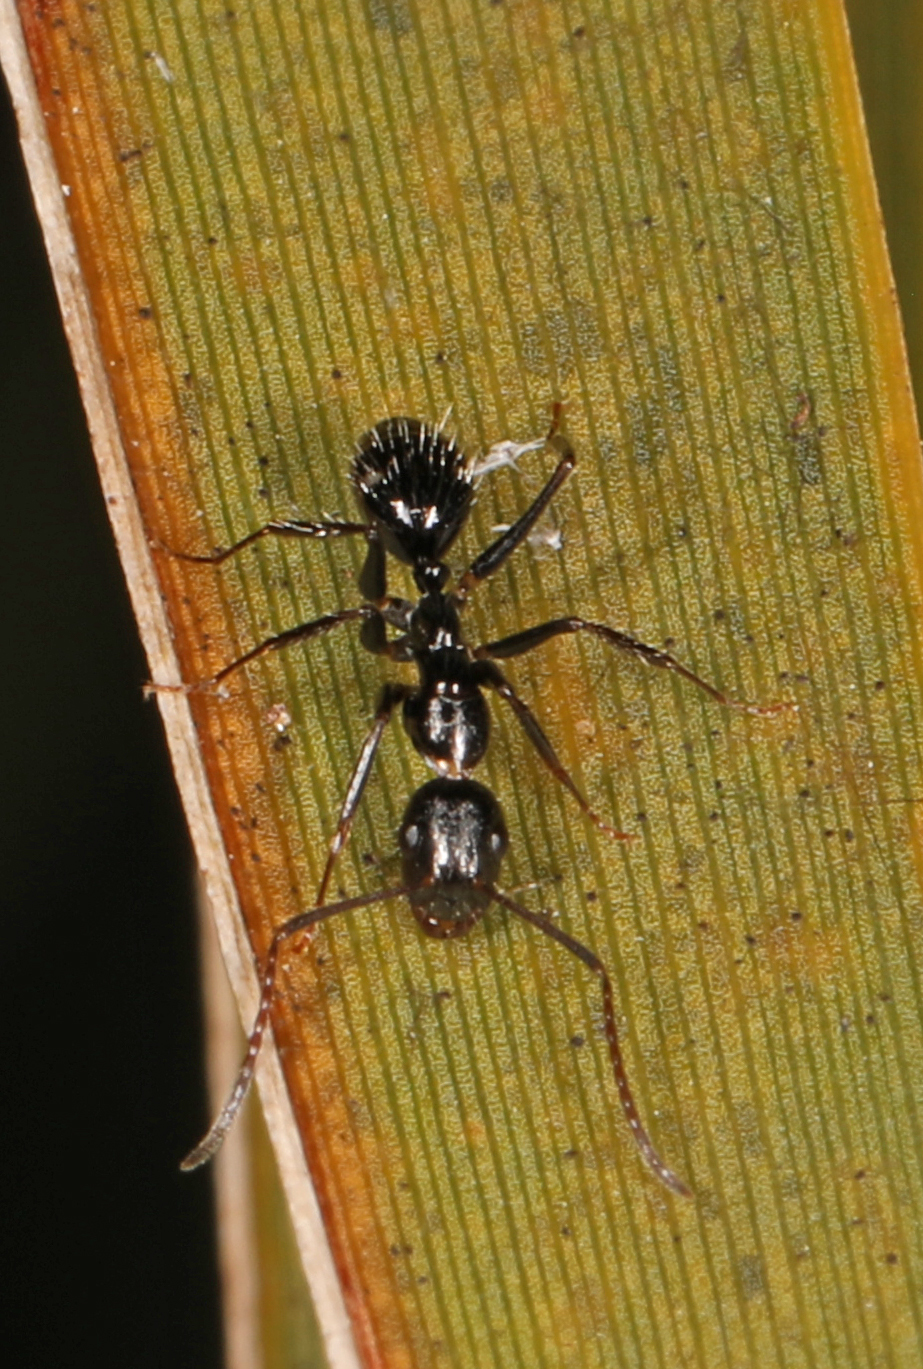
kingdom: Animalia
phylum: Arthropoda
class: Insecta
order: Hymenoptera
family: Formicidae
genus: Camponotus
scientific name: Camponotus sexguttatus
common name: Neotropical carpenter ant
